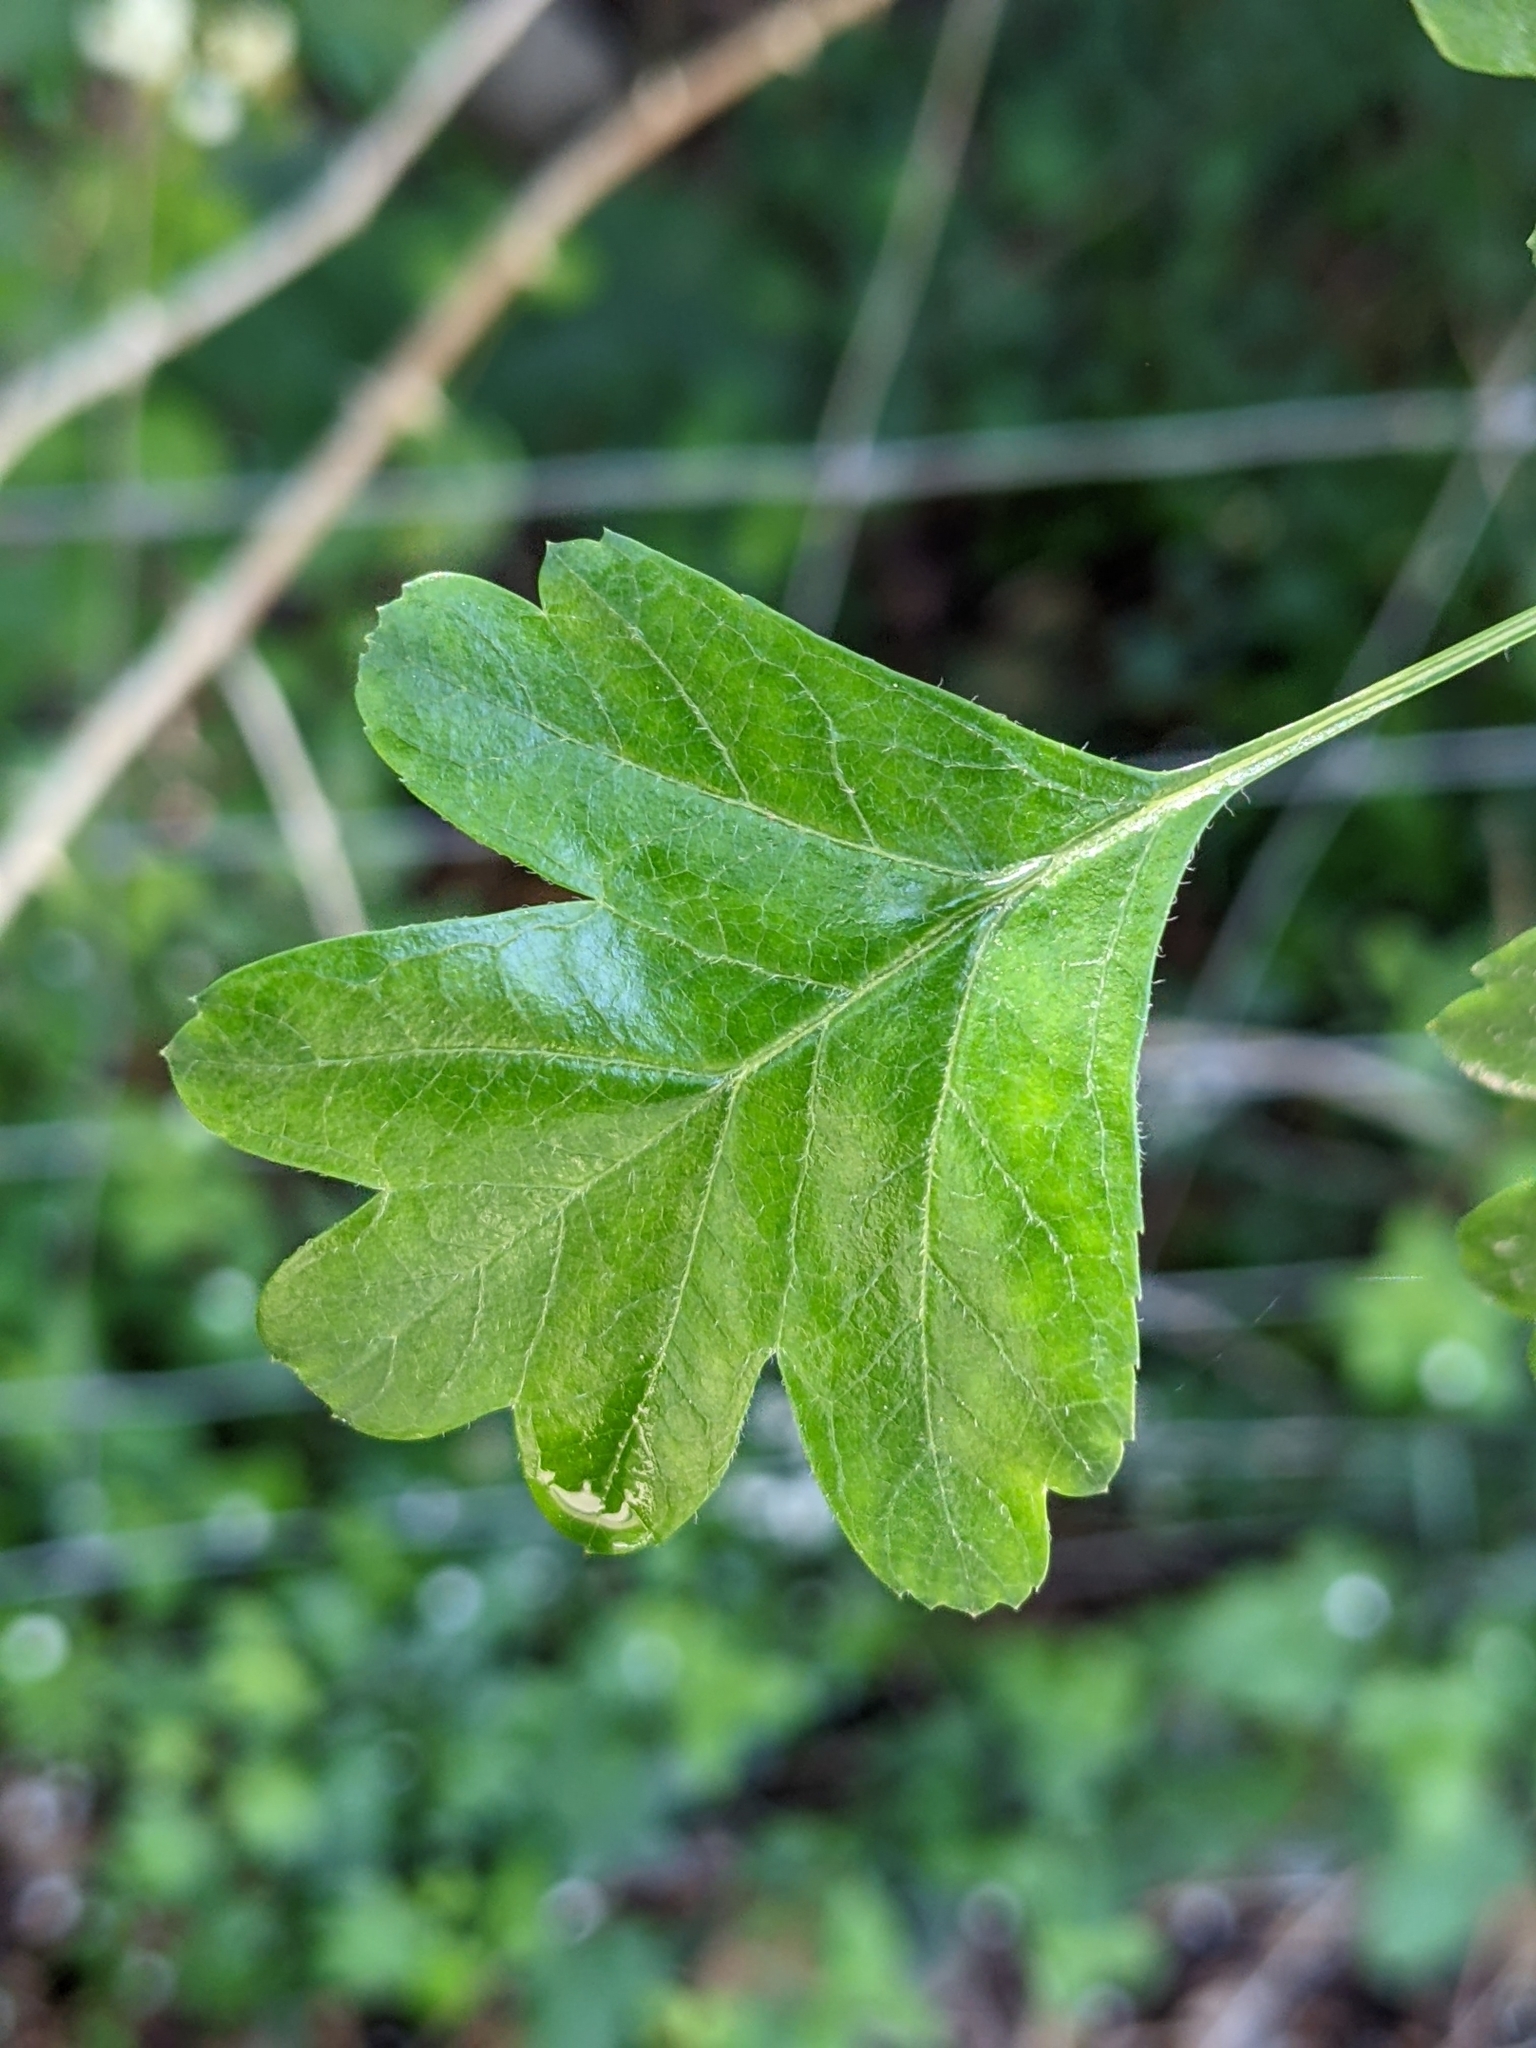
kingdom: Plantae
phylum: Tracheophyta
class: Magnoliopsida
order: Rosales
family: Rosaceae
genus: Crataegus
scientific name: Crataegus monogyna
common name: Hawthorn
